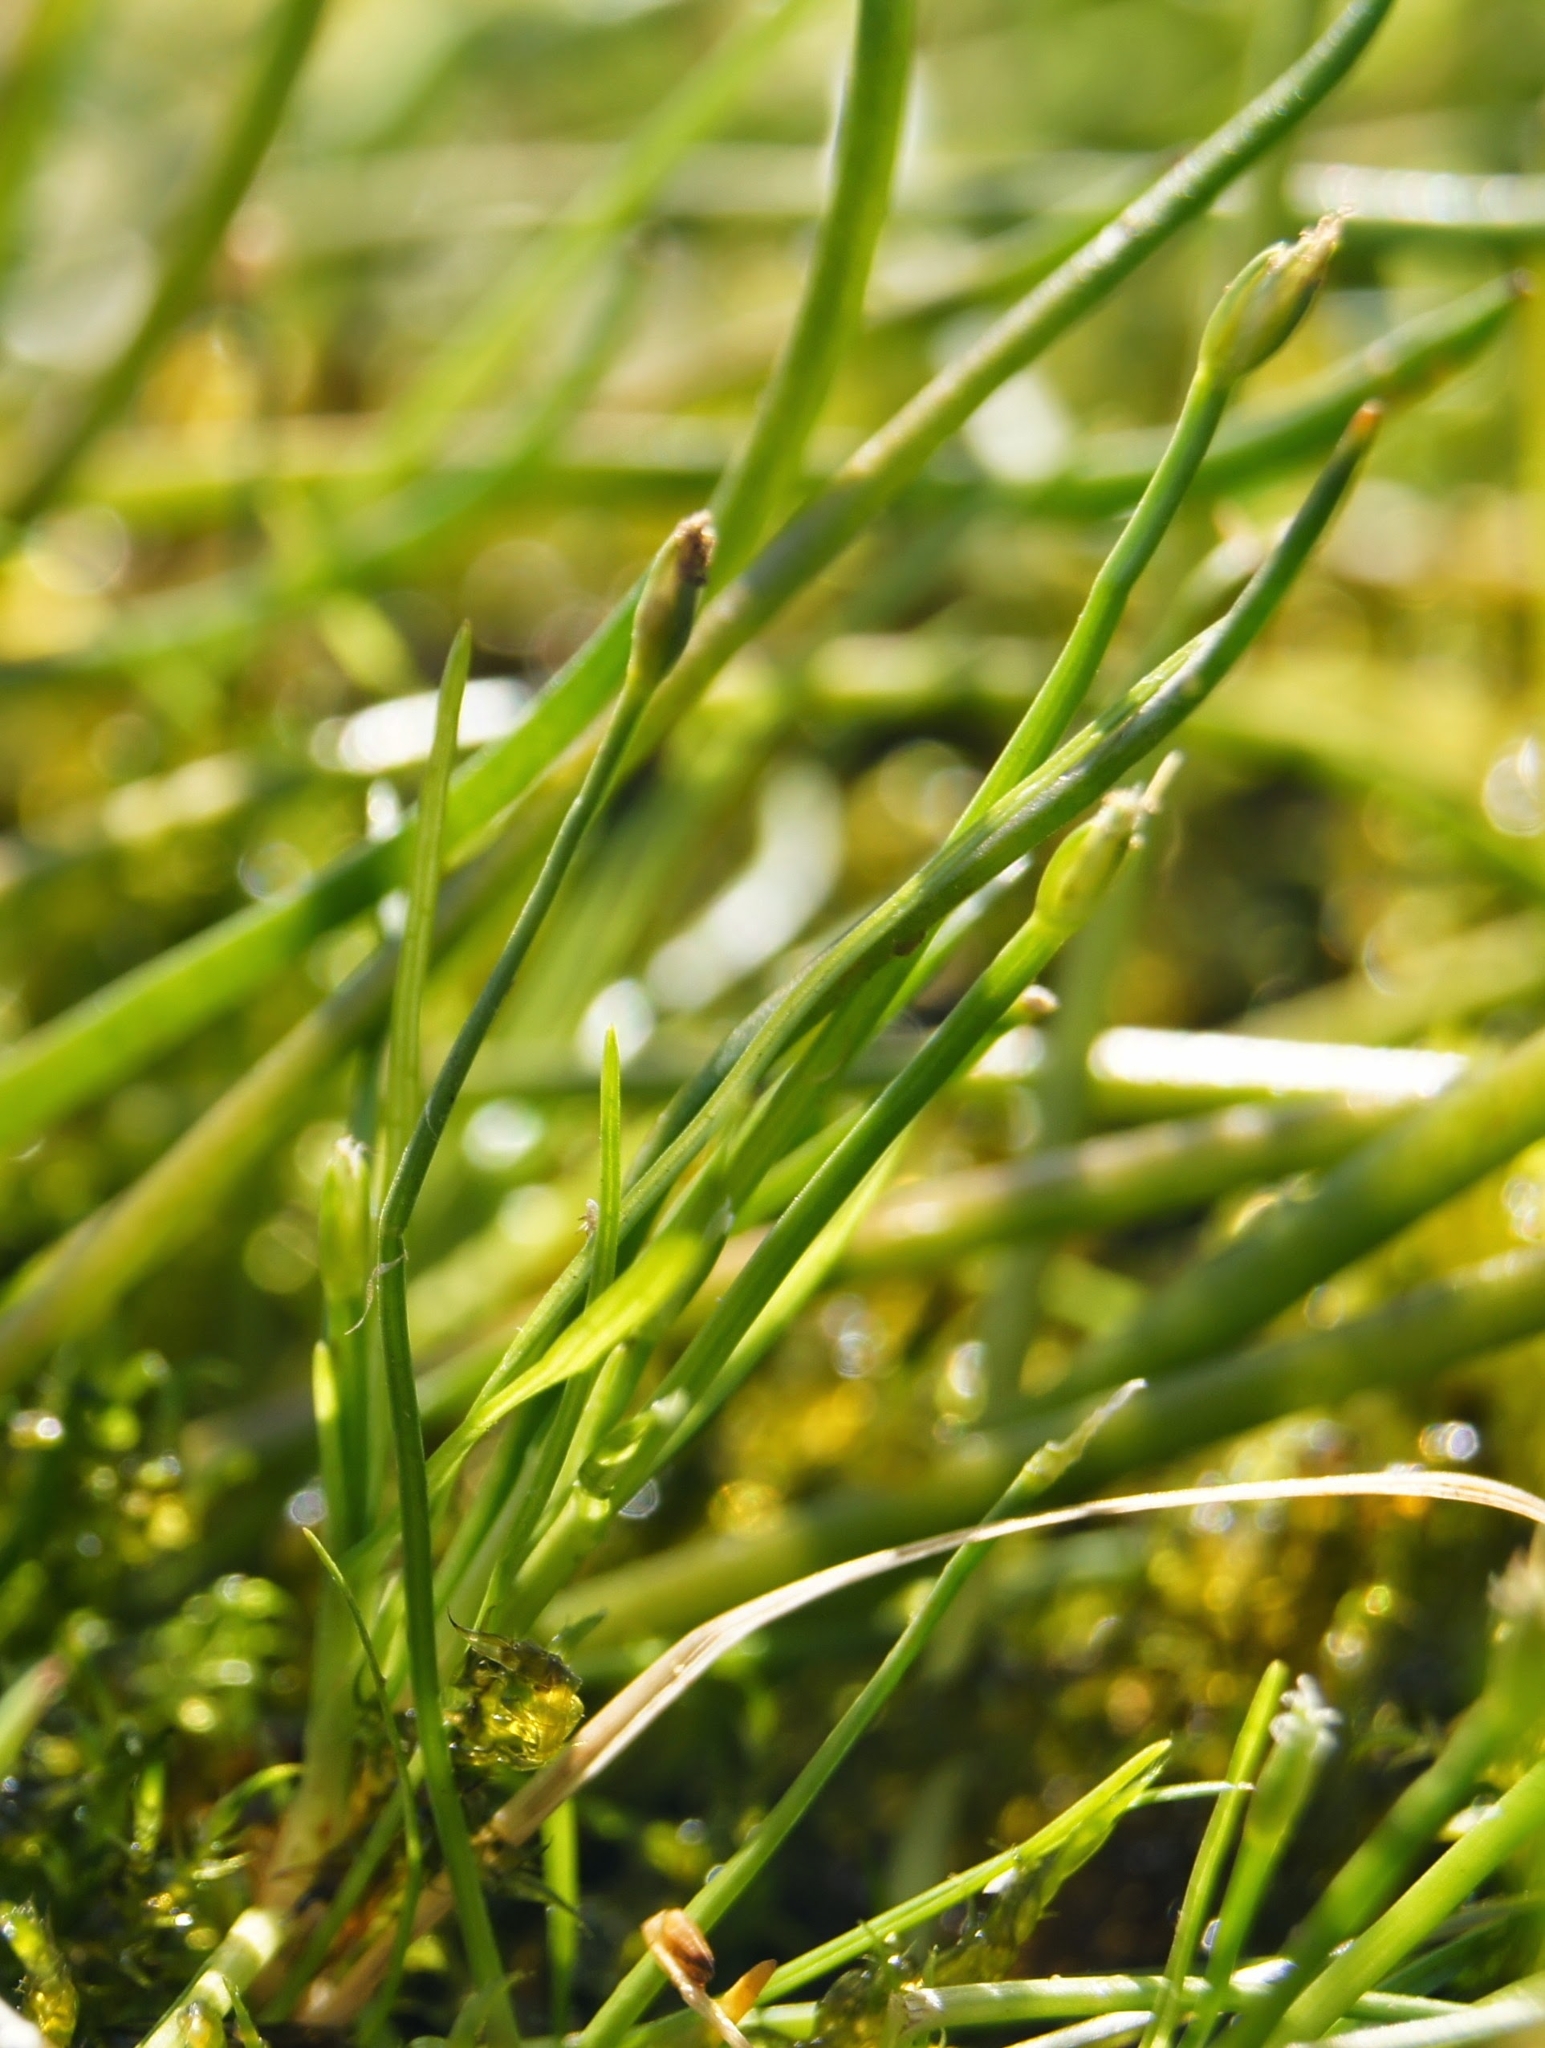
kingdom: Plantae
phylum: Tracheophyta
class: Liliopsida
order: Poales
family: Cyperaceae
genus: Isolepis
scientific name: Isolepis fluitans
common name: Floating club-rush
